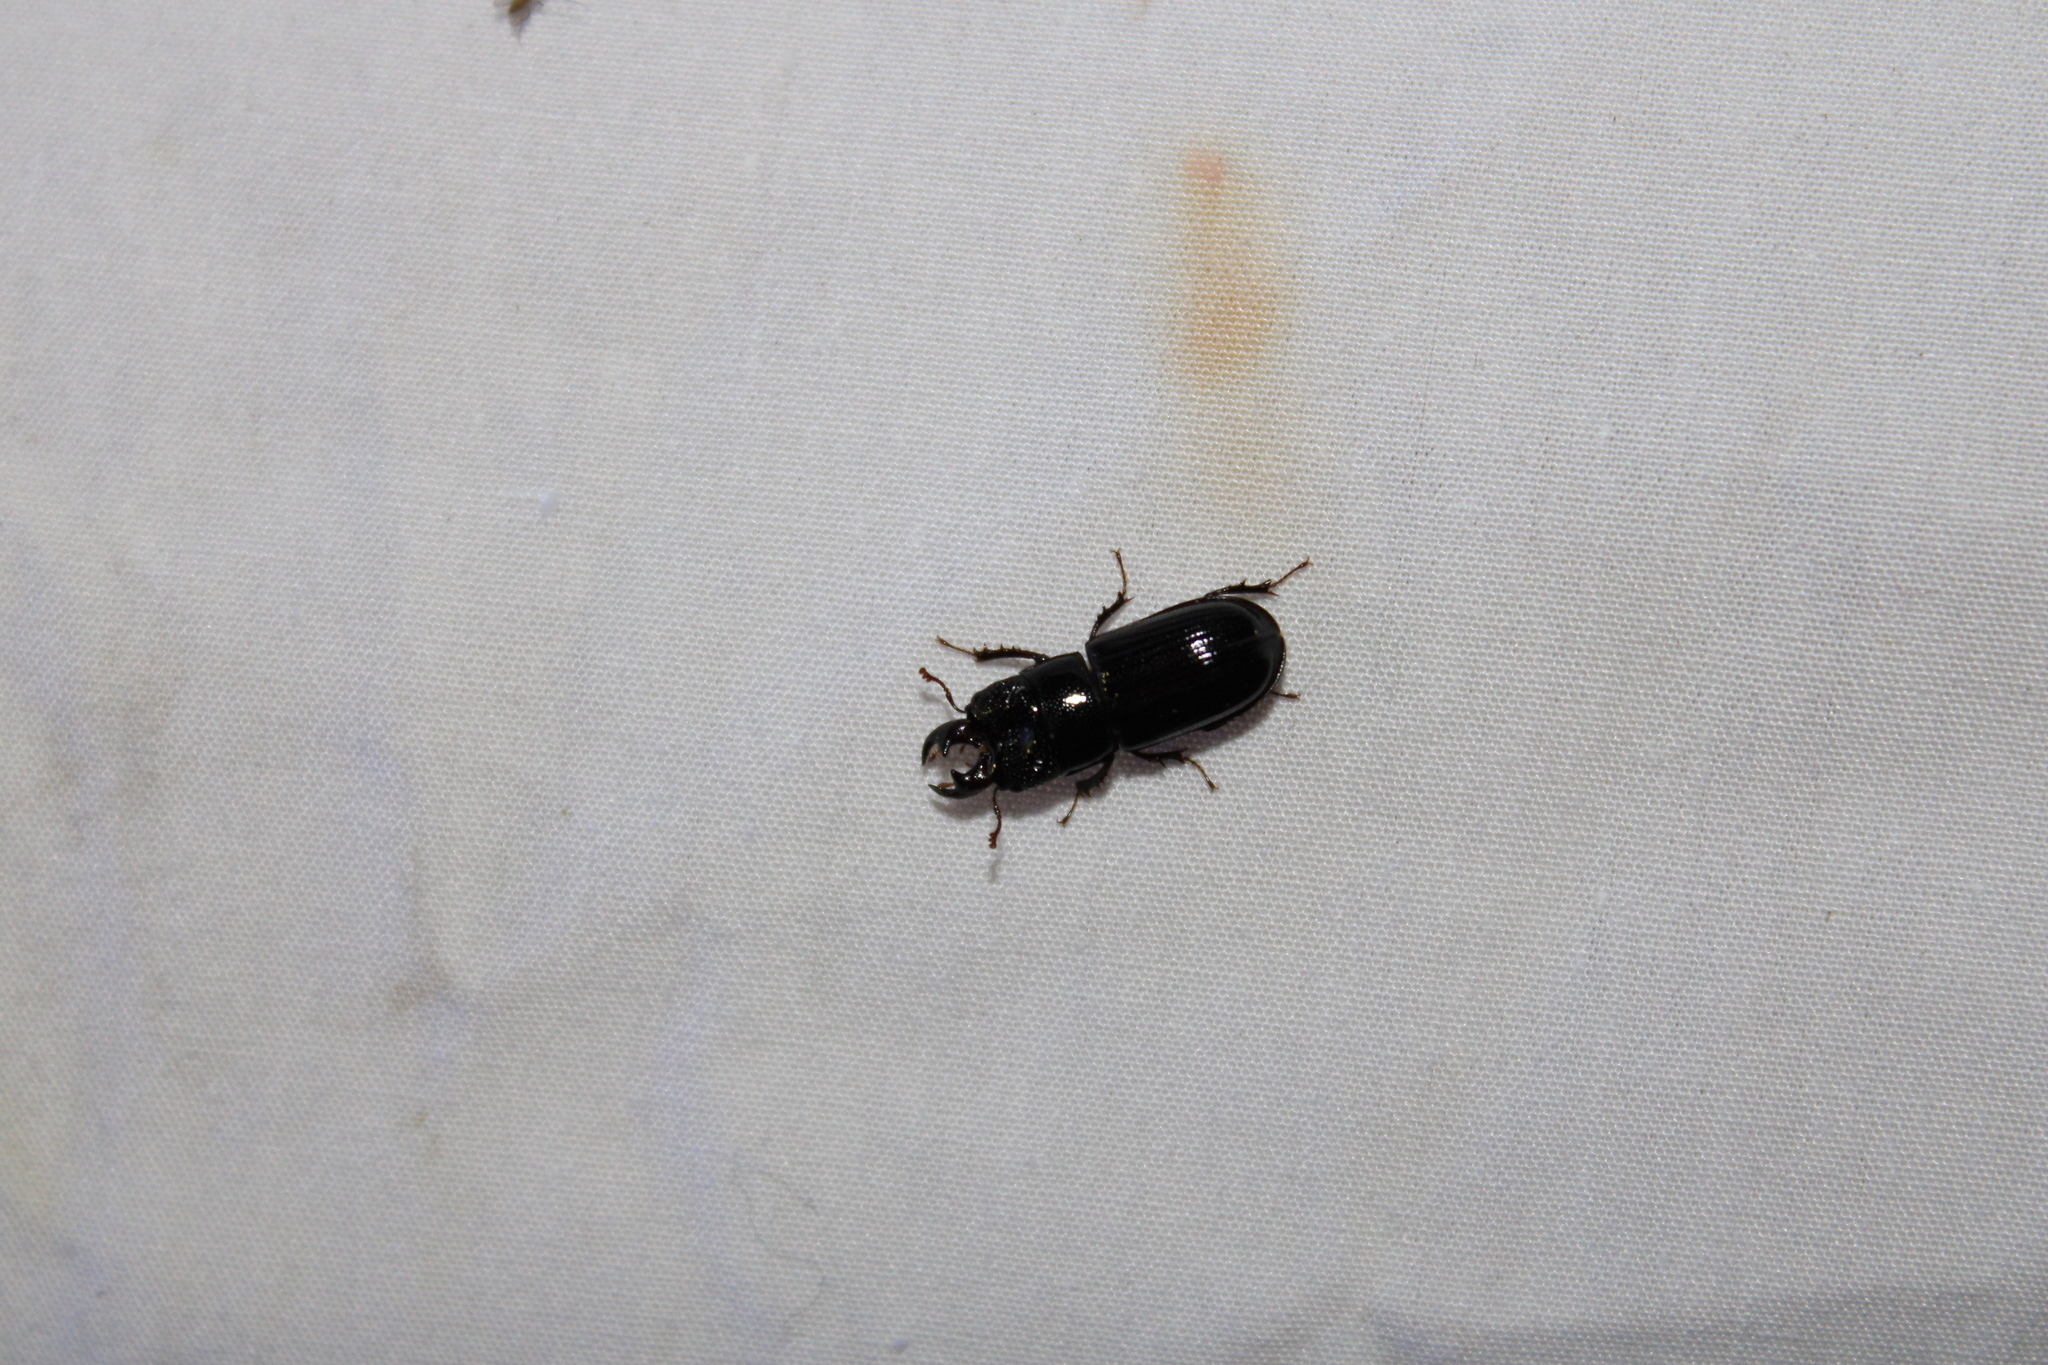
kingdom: Animalia
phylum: Arthropoda
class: Insecta
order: Coleoptera
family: Lucanidae
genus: Ceruchus
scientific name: Ceruchus piceus
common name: Red-rot decay stag beetle
